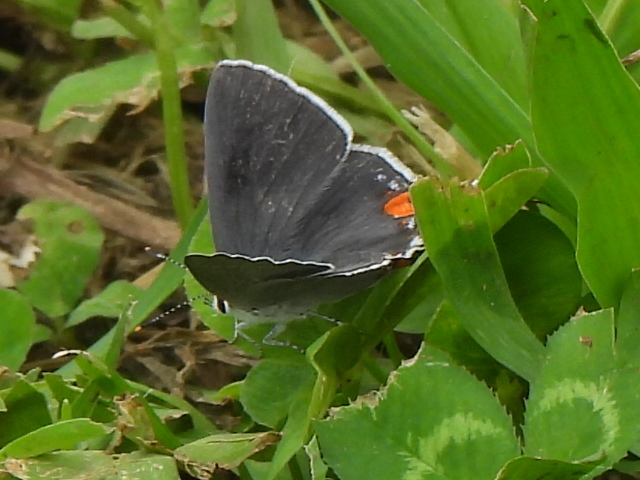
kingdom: Animalia
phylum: Arthropoda
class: Insecta
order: Lepidoptera
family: Lycaenidae
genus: Strymon
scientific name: Strymon melinus
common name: Gray hairstreak
